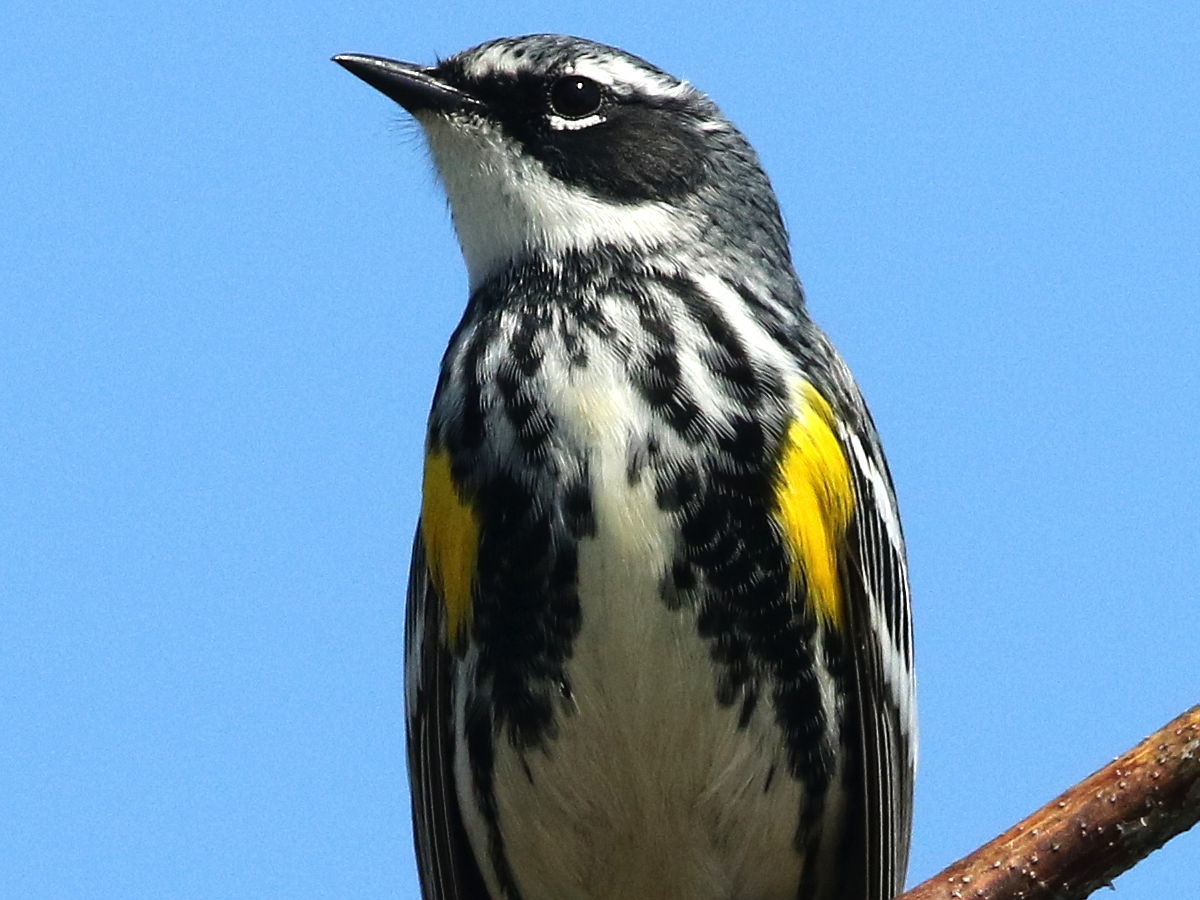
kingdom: Animalia
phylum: Chordata
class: Aves
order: Passeriformes
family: Parulidae
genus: Setophaga
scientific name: Setophaga coronata
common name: Myrtle warbler
